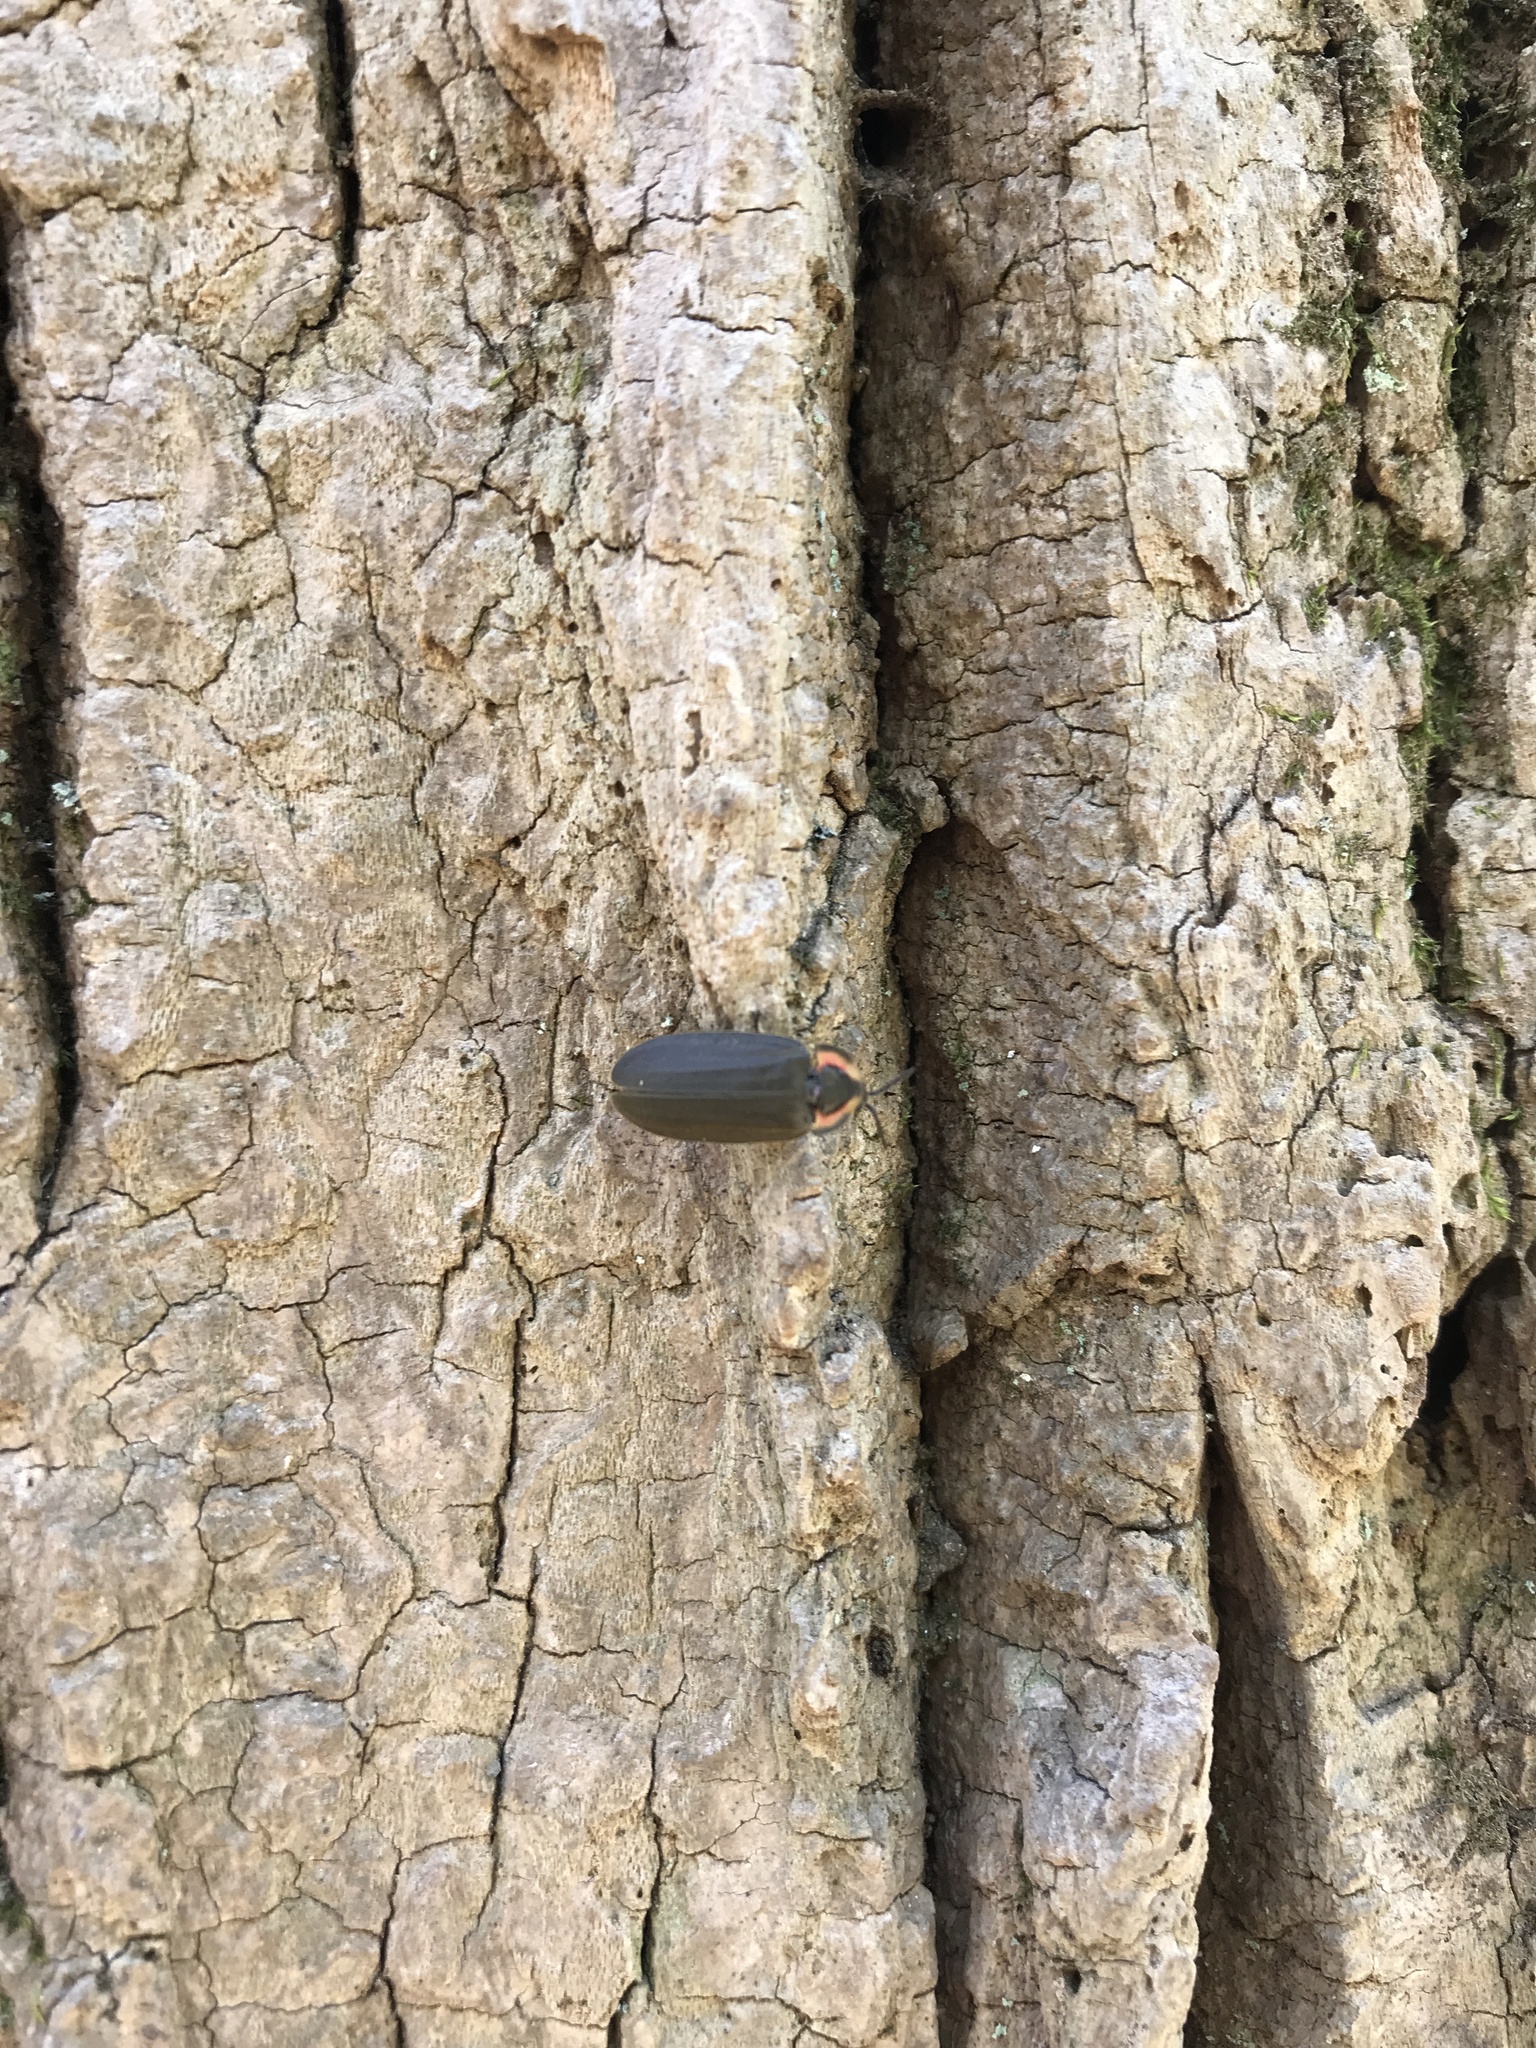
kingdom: Animalia
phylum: Arthropoda
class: Insecta
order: Coleoptera
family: Lampyridae
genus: Photinus
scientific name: Photinus corrusca
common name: Winter firefly
